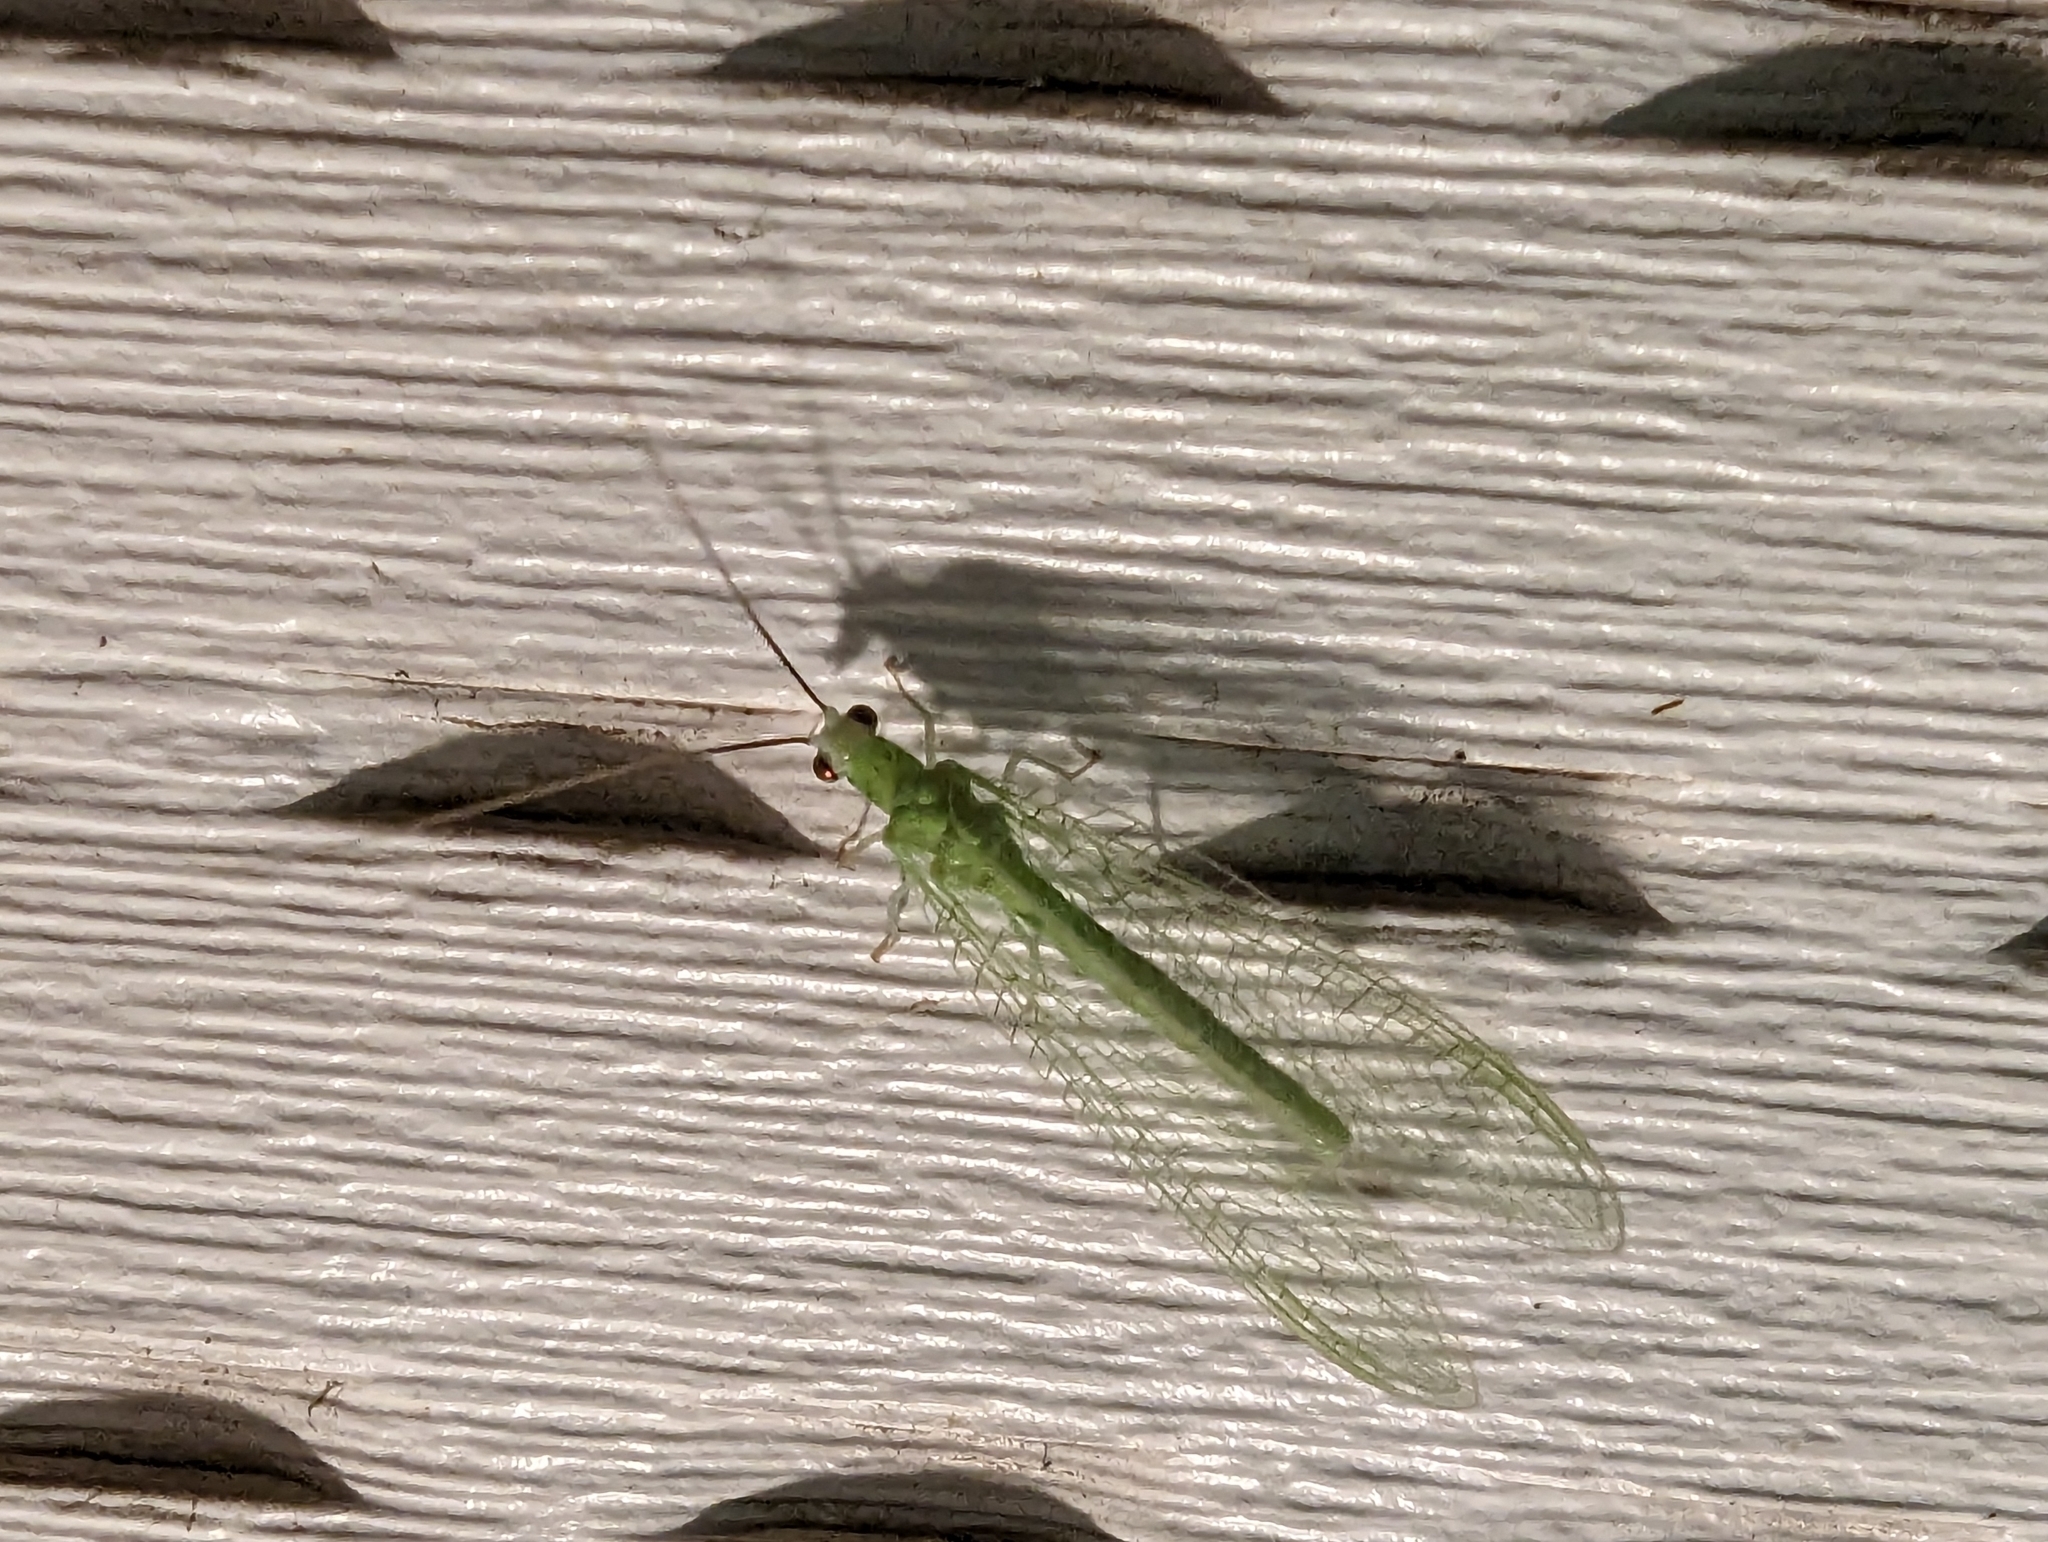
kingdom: Animalia
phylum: Arthropoda
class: Insecta
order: Neuroptera
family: Chrysopidae
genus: Chrysopa
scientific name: Chrysopa nigricornis
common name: Black-horned green lacewing
